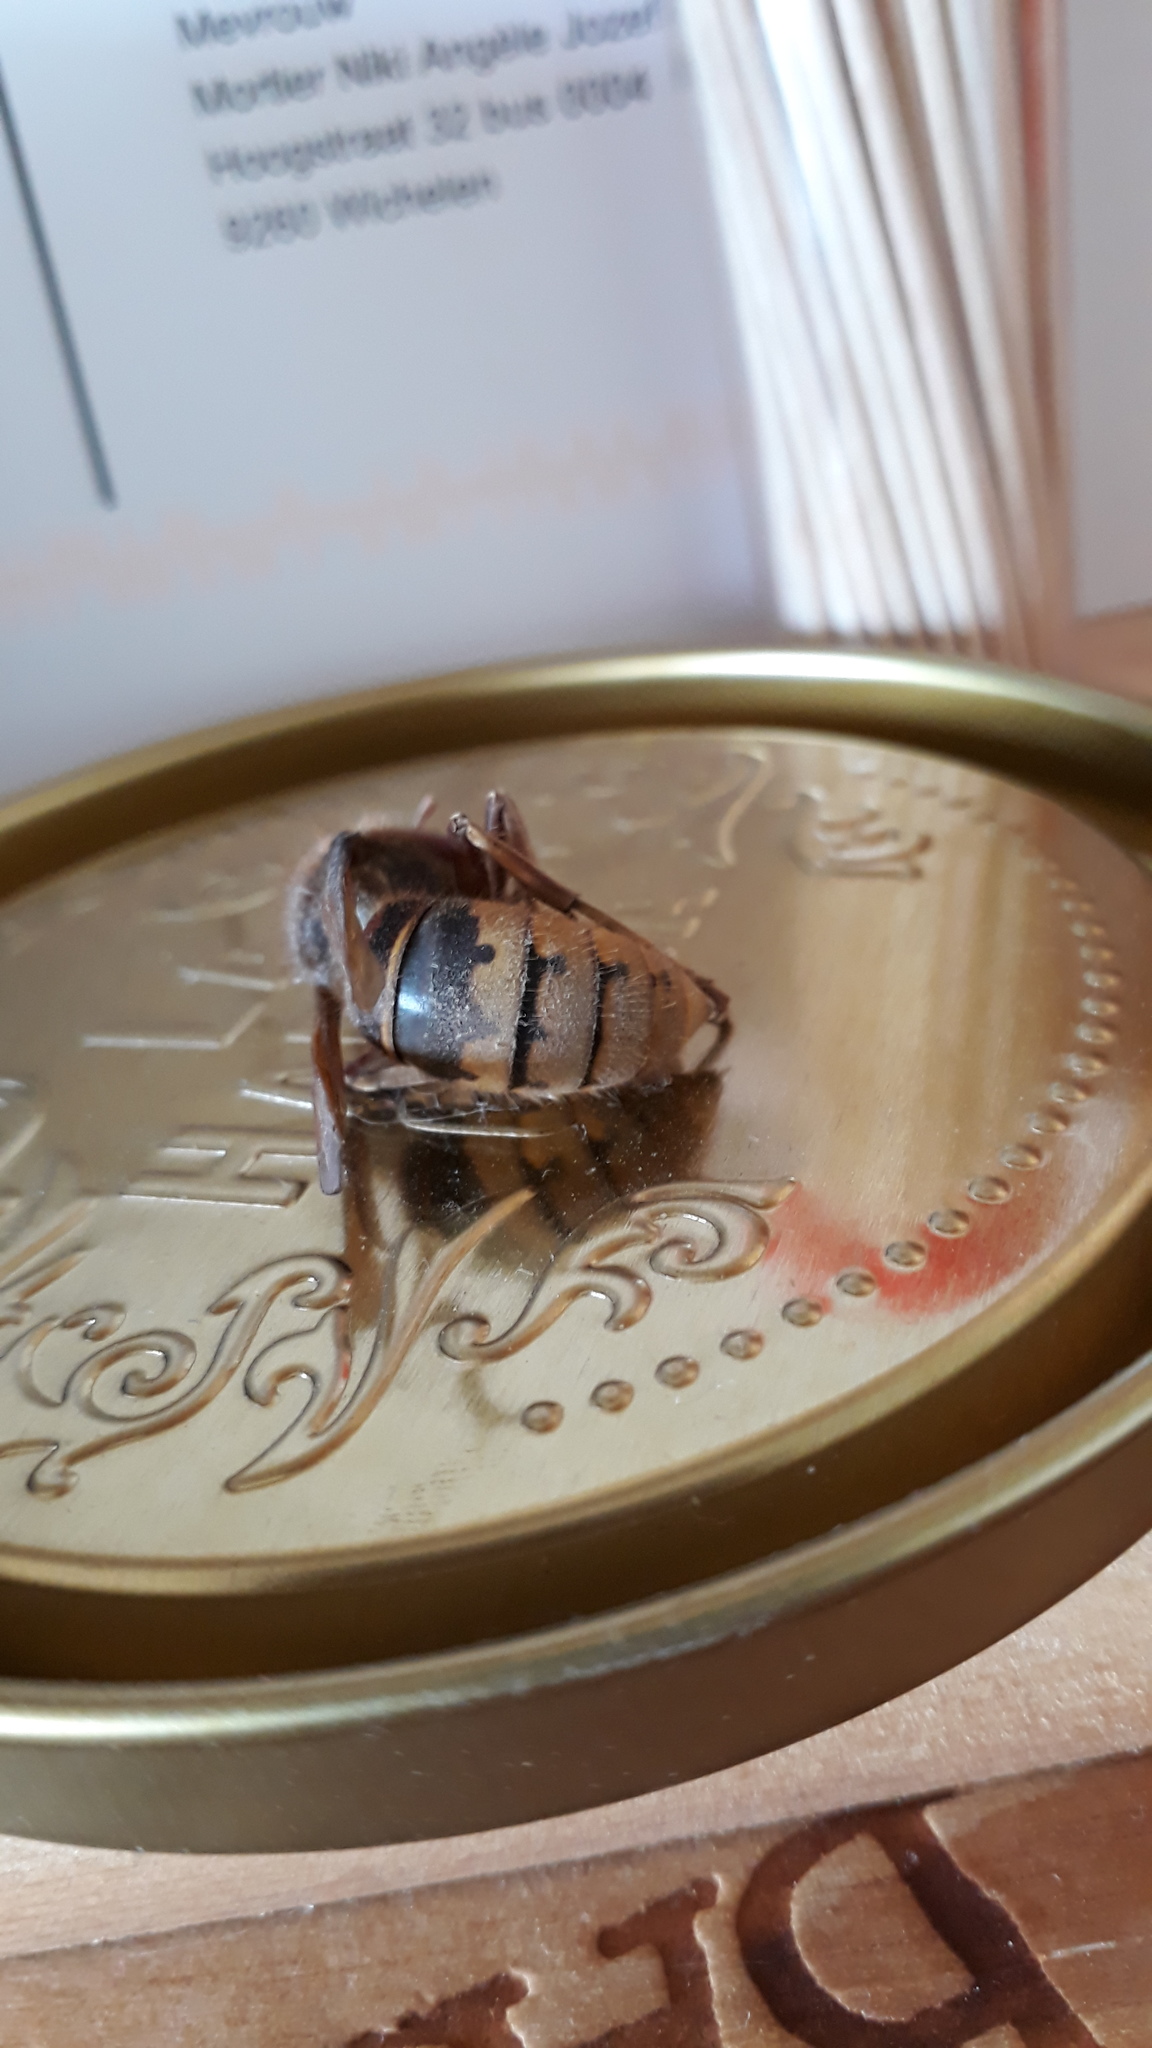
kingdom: Animalia
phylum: Arthropoda
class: Insecta
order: Hymenoptera
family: Vespidae
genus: Vespa
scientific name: Vespa crabro
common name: Hornet
